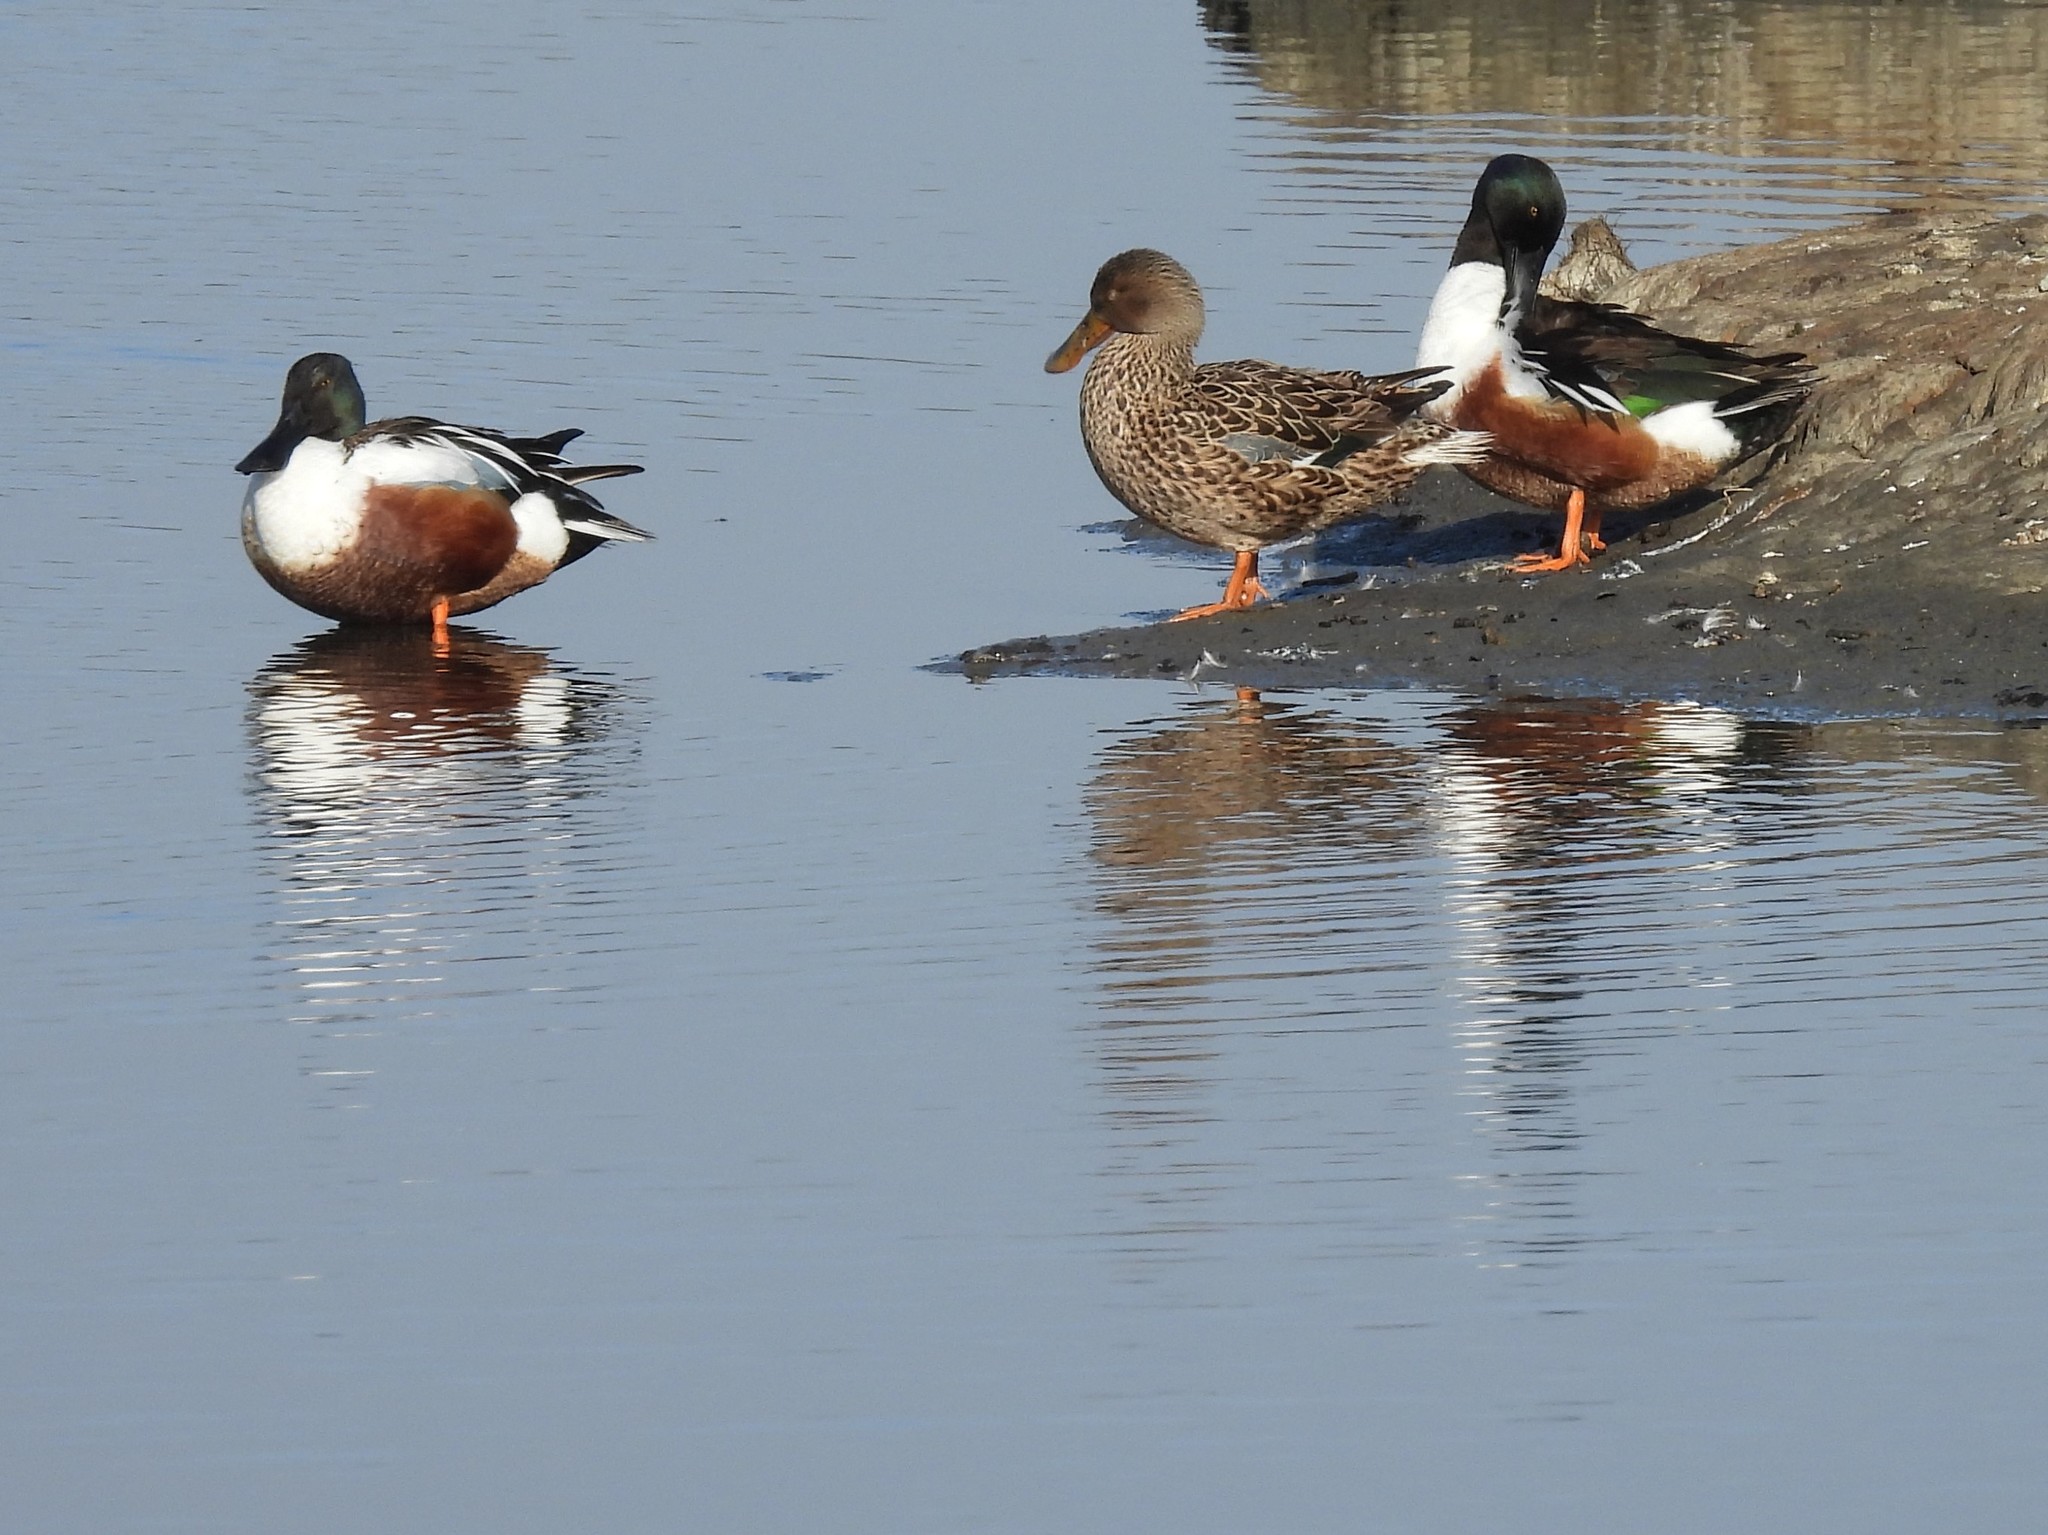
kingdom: Animalia
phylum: Chordata
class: Aves
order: Anseriformes
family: Anatidae
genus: Spatula
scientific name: Spatula clypeata
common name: Northern shoveler
